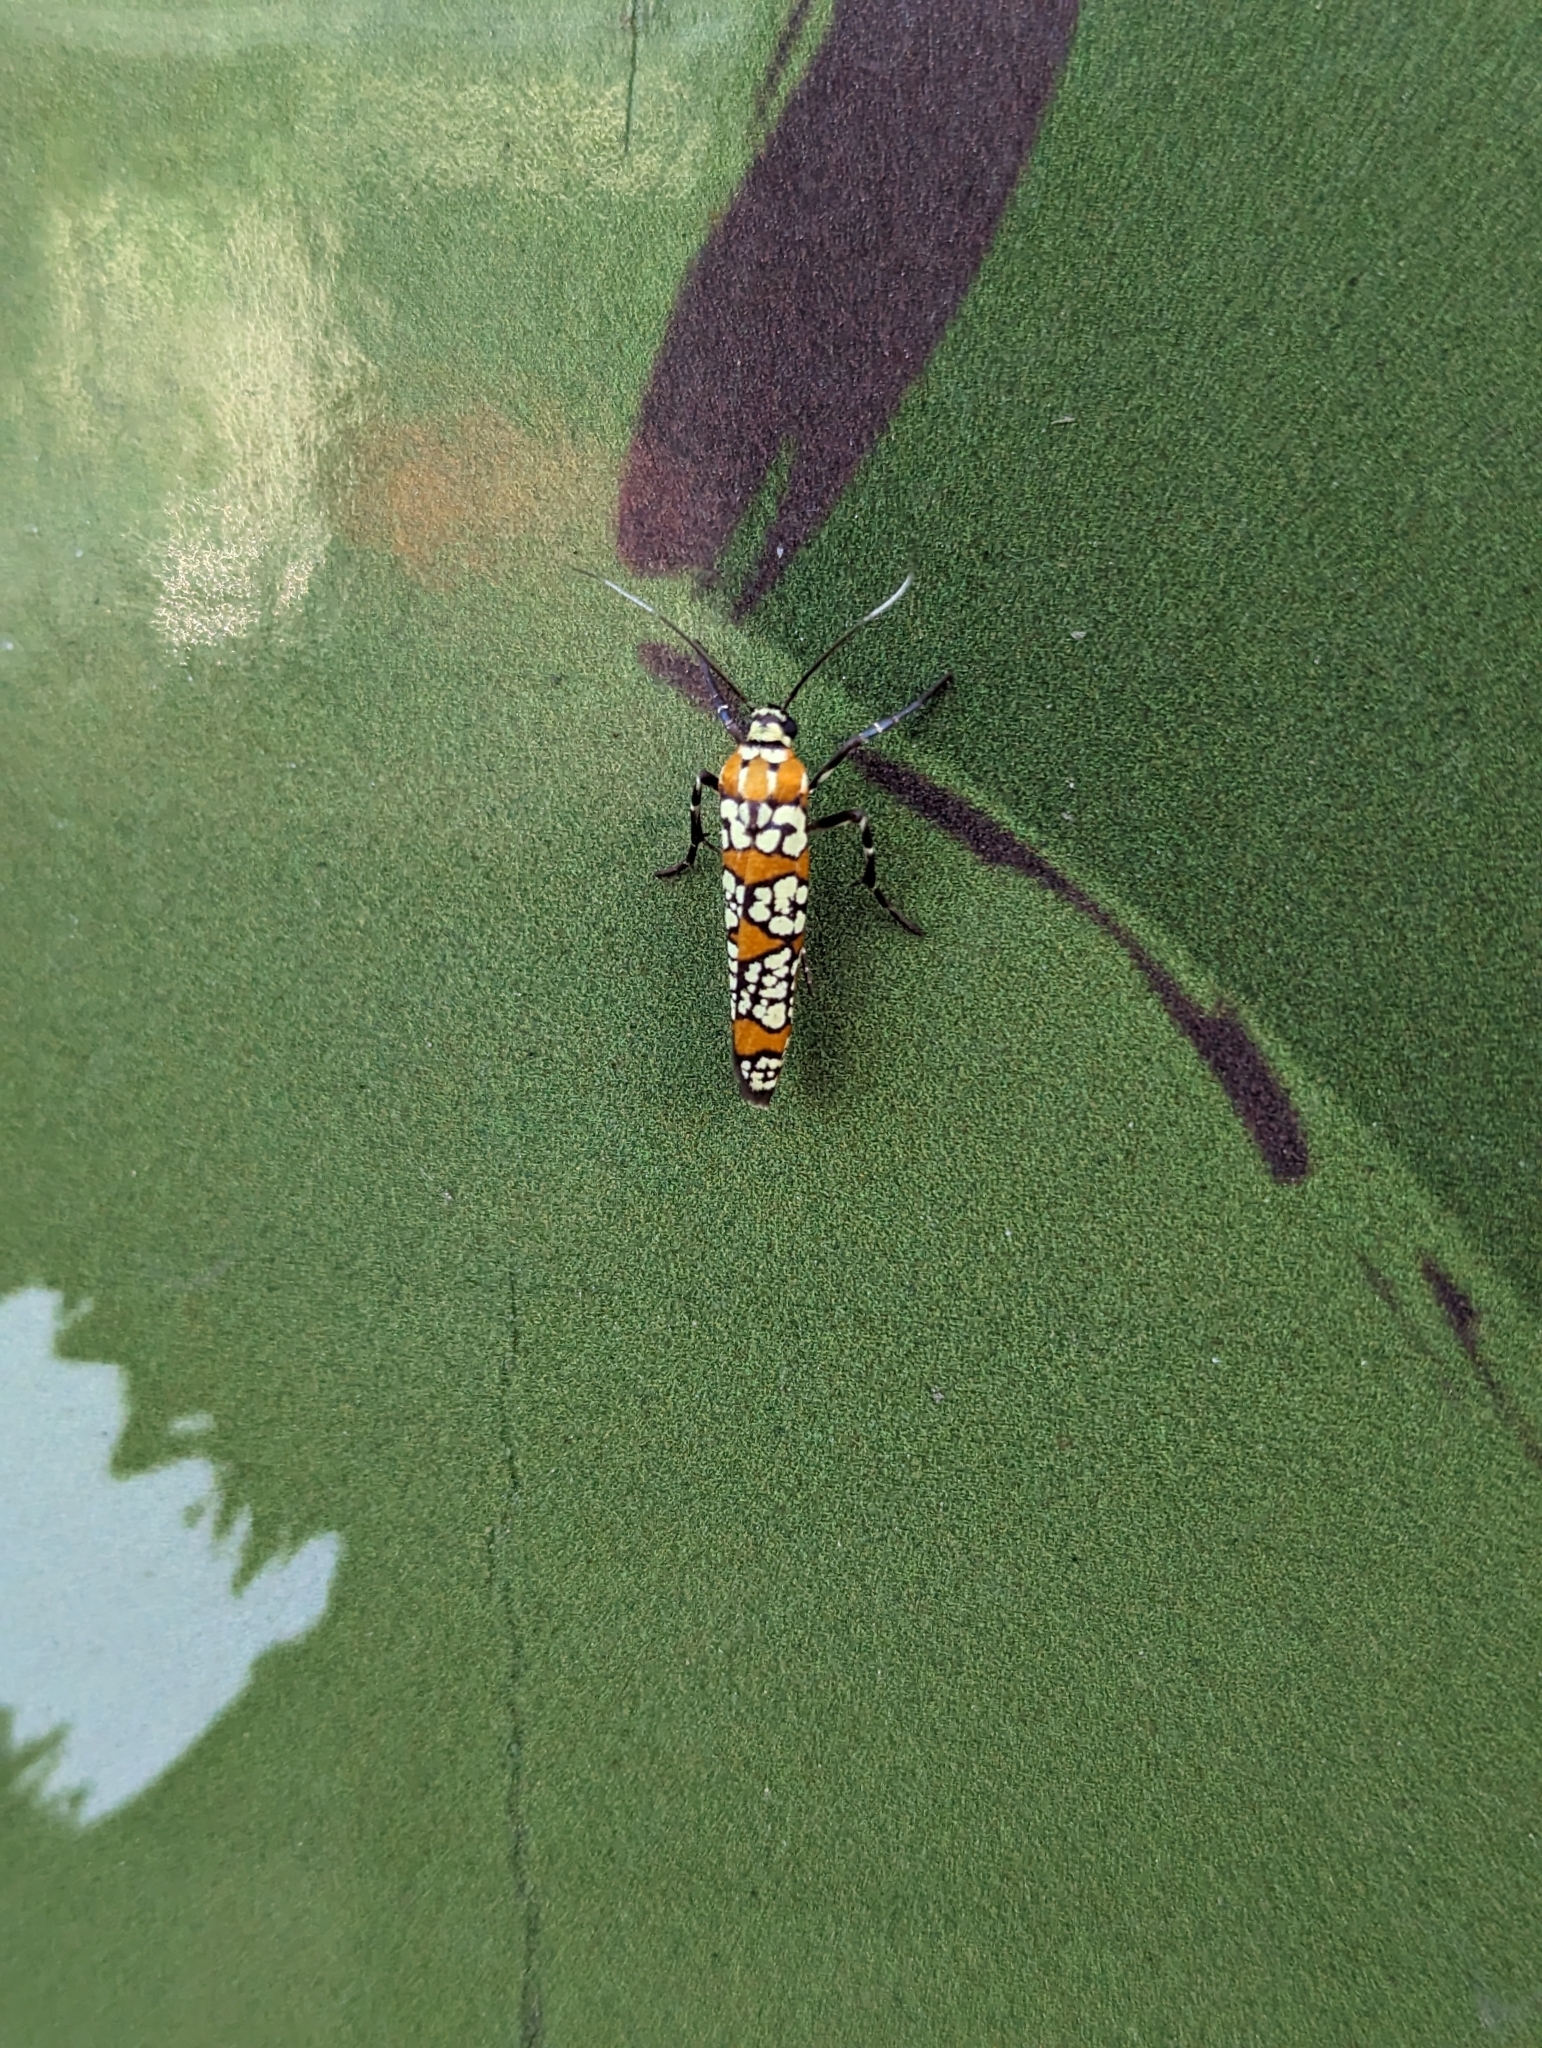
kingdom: Animalia
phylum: Arthropoda
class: Insecta
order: Lepidoptera
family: Attevidae
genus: Atteva
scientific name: Atteva punctella
